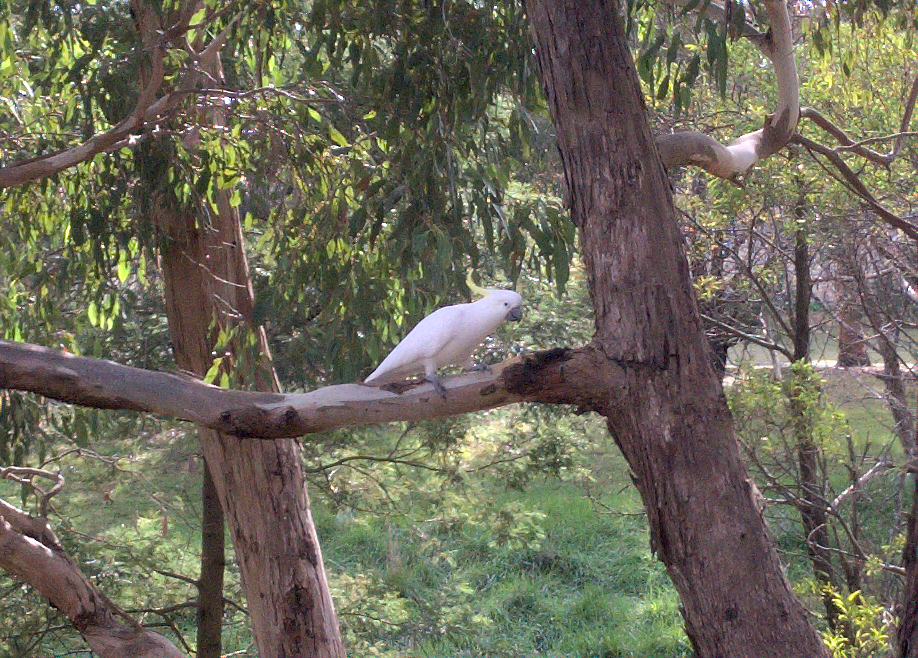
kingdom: Animalia
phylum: Chordata
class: Aves
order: Psittaciformes
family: Psittacidae
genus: Cacatua
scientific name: Cacatua galerita
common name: Sulphur-crested cockatoo
